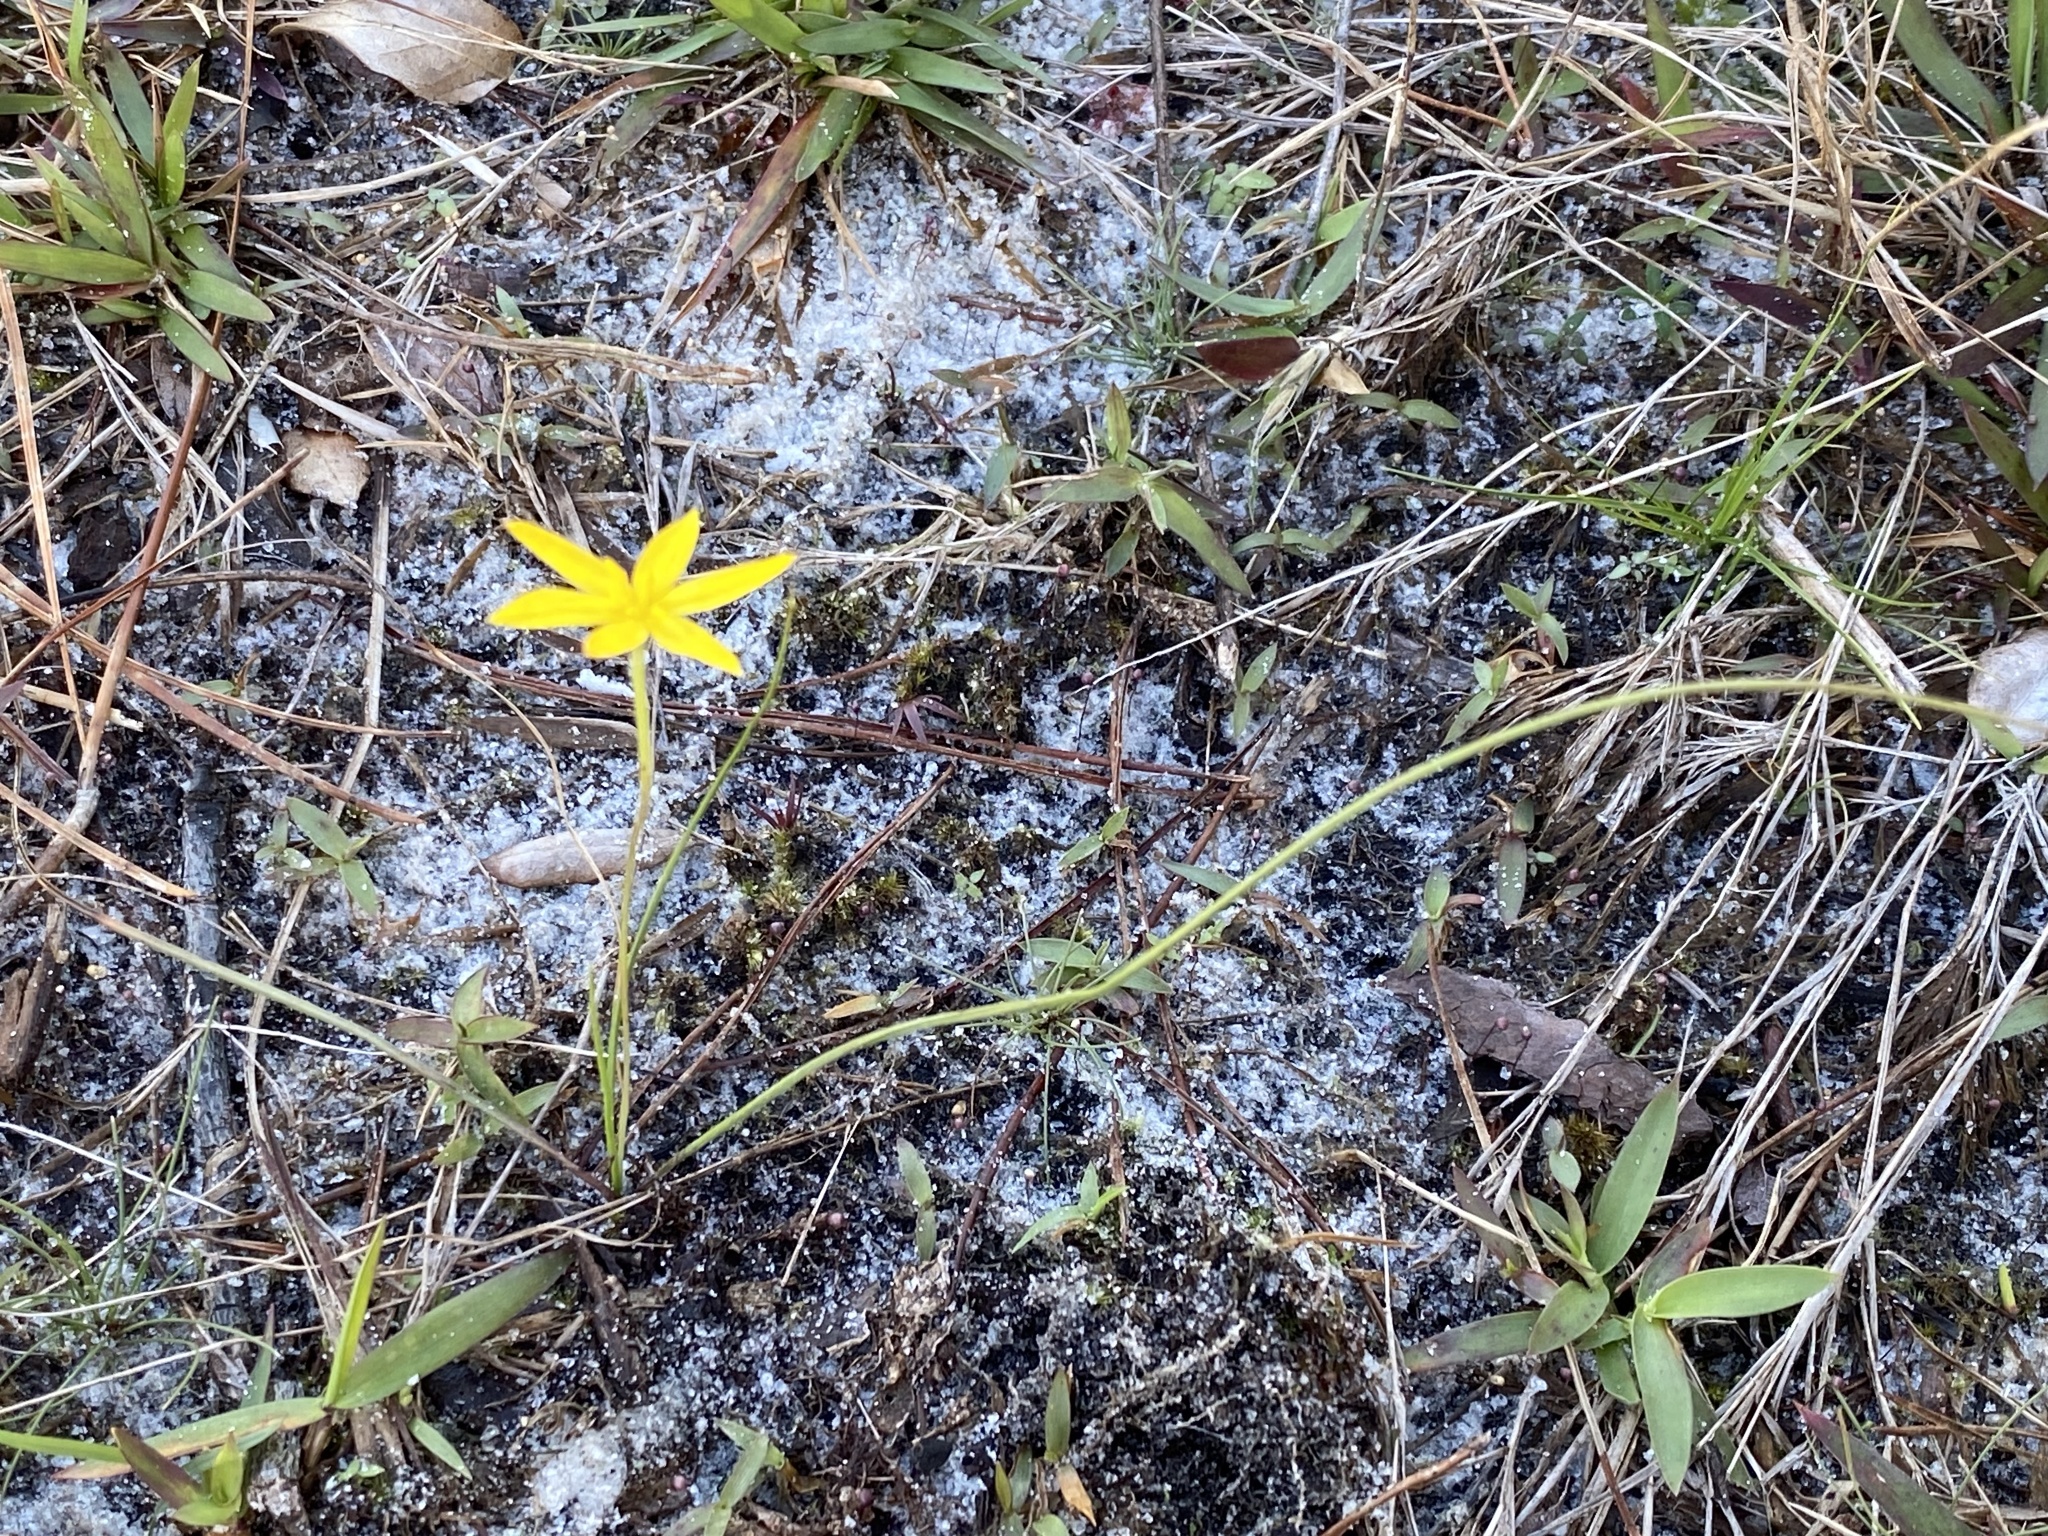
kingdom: Plantae
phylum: Tracheophyta
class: Liliopsida
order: Asparagales
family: Hypoxidaceae
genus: Hypoxis
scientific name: Hypoxis juncea
